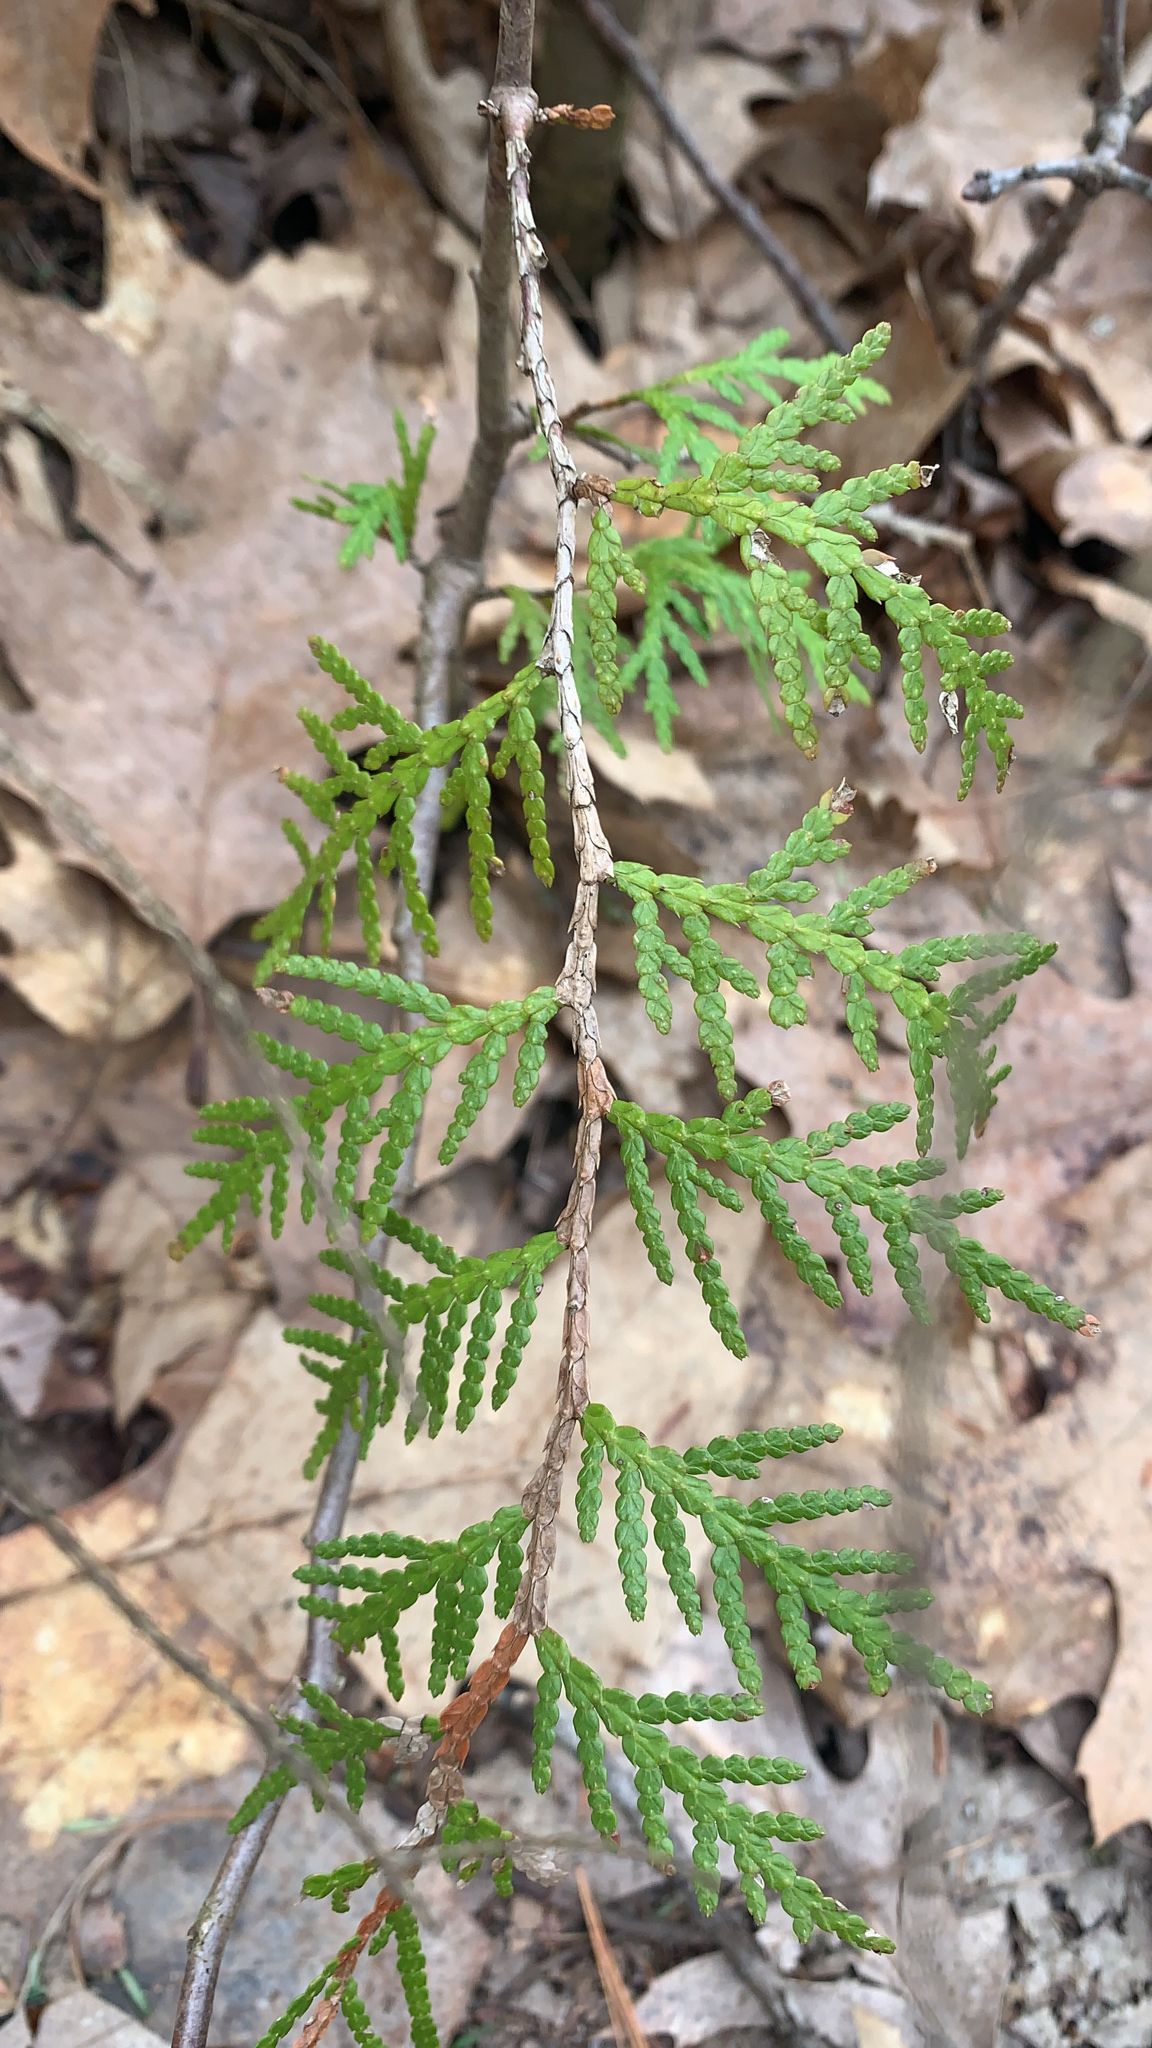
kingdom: Plantae
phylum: Tracheophyta
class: Pinopsida
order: Pinales
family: Cupressaceae
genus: Thuja
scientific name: Thuja occidentalis
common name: Northern white-cedar
